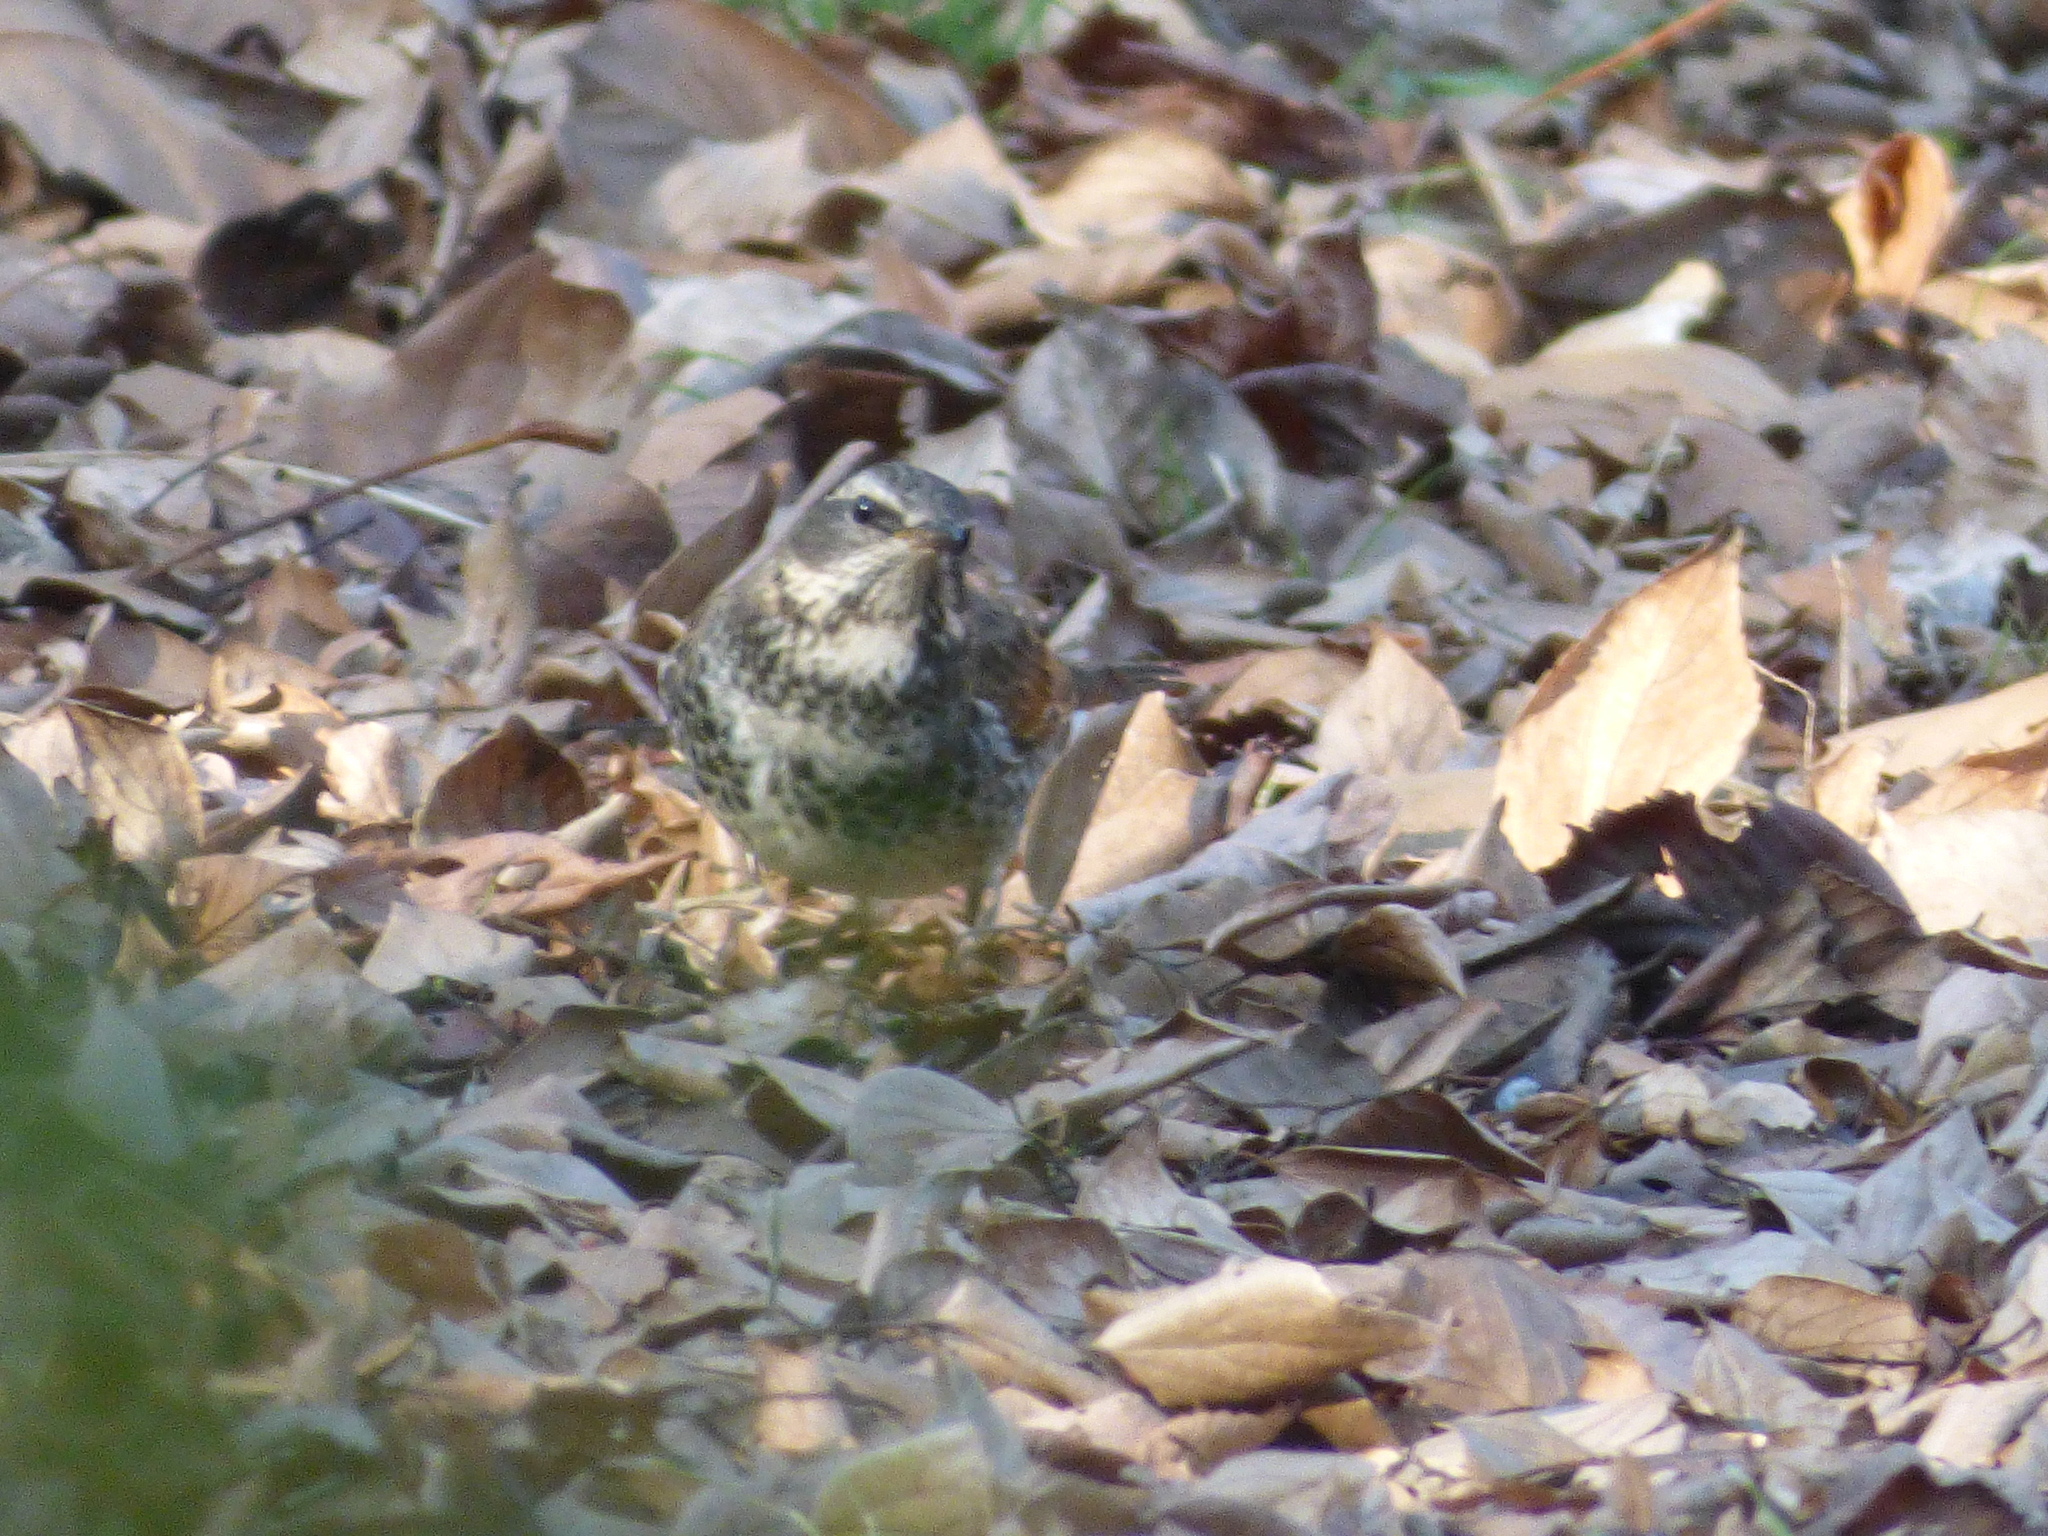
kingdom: Animalia
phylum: Chordata
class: Aves
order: Passeriformes
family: Turdidae
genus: Turdus
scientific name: Turdus eunomus
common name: Dusky thrush
